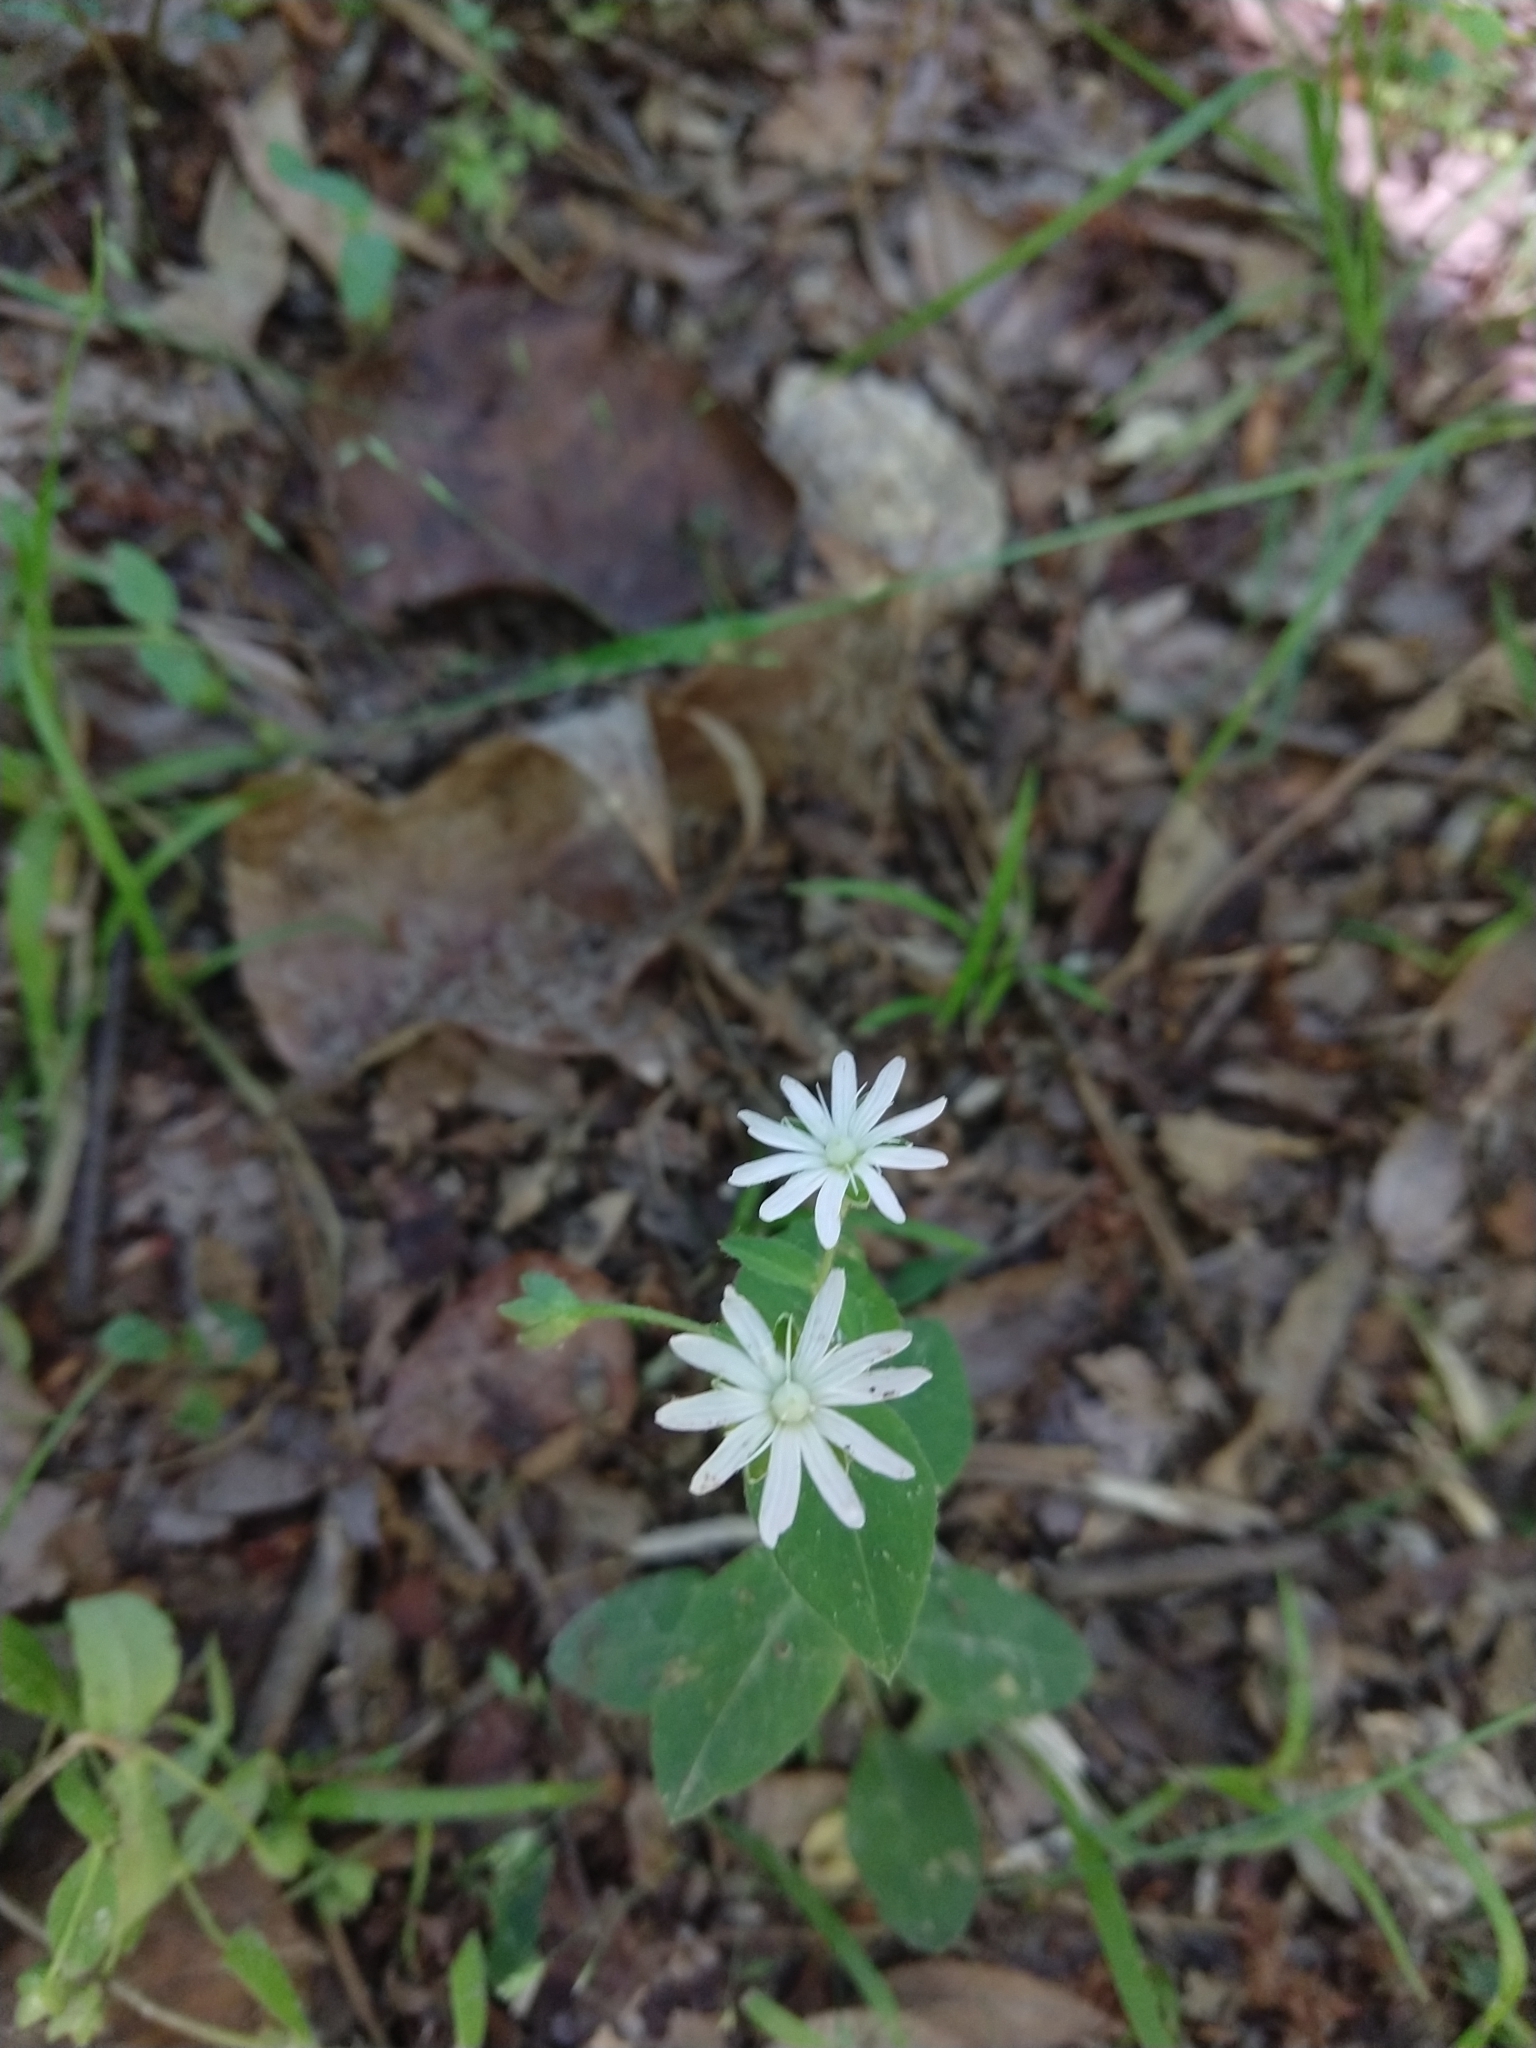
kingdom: Plantae
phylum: Tracheophyta
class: Magnoliopsida
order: Caryophyllales
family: Caryophyllaceae
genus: Stellaria
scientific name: Stellaria pubera
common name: Star chickweed
